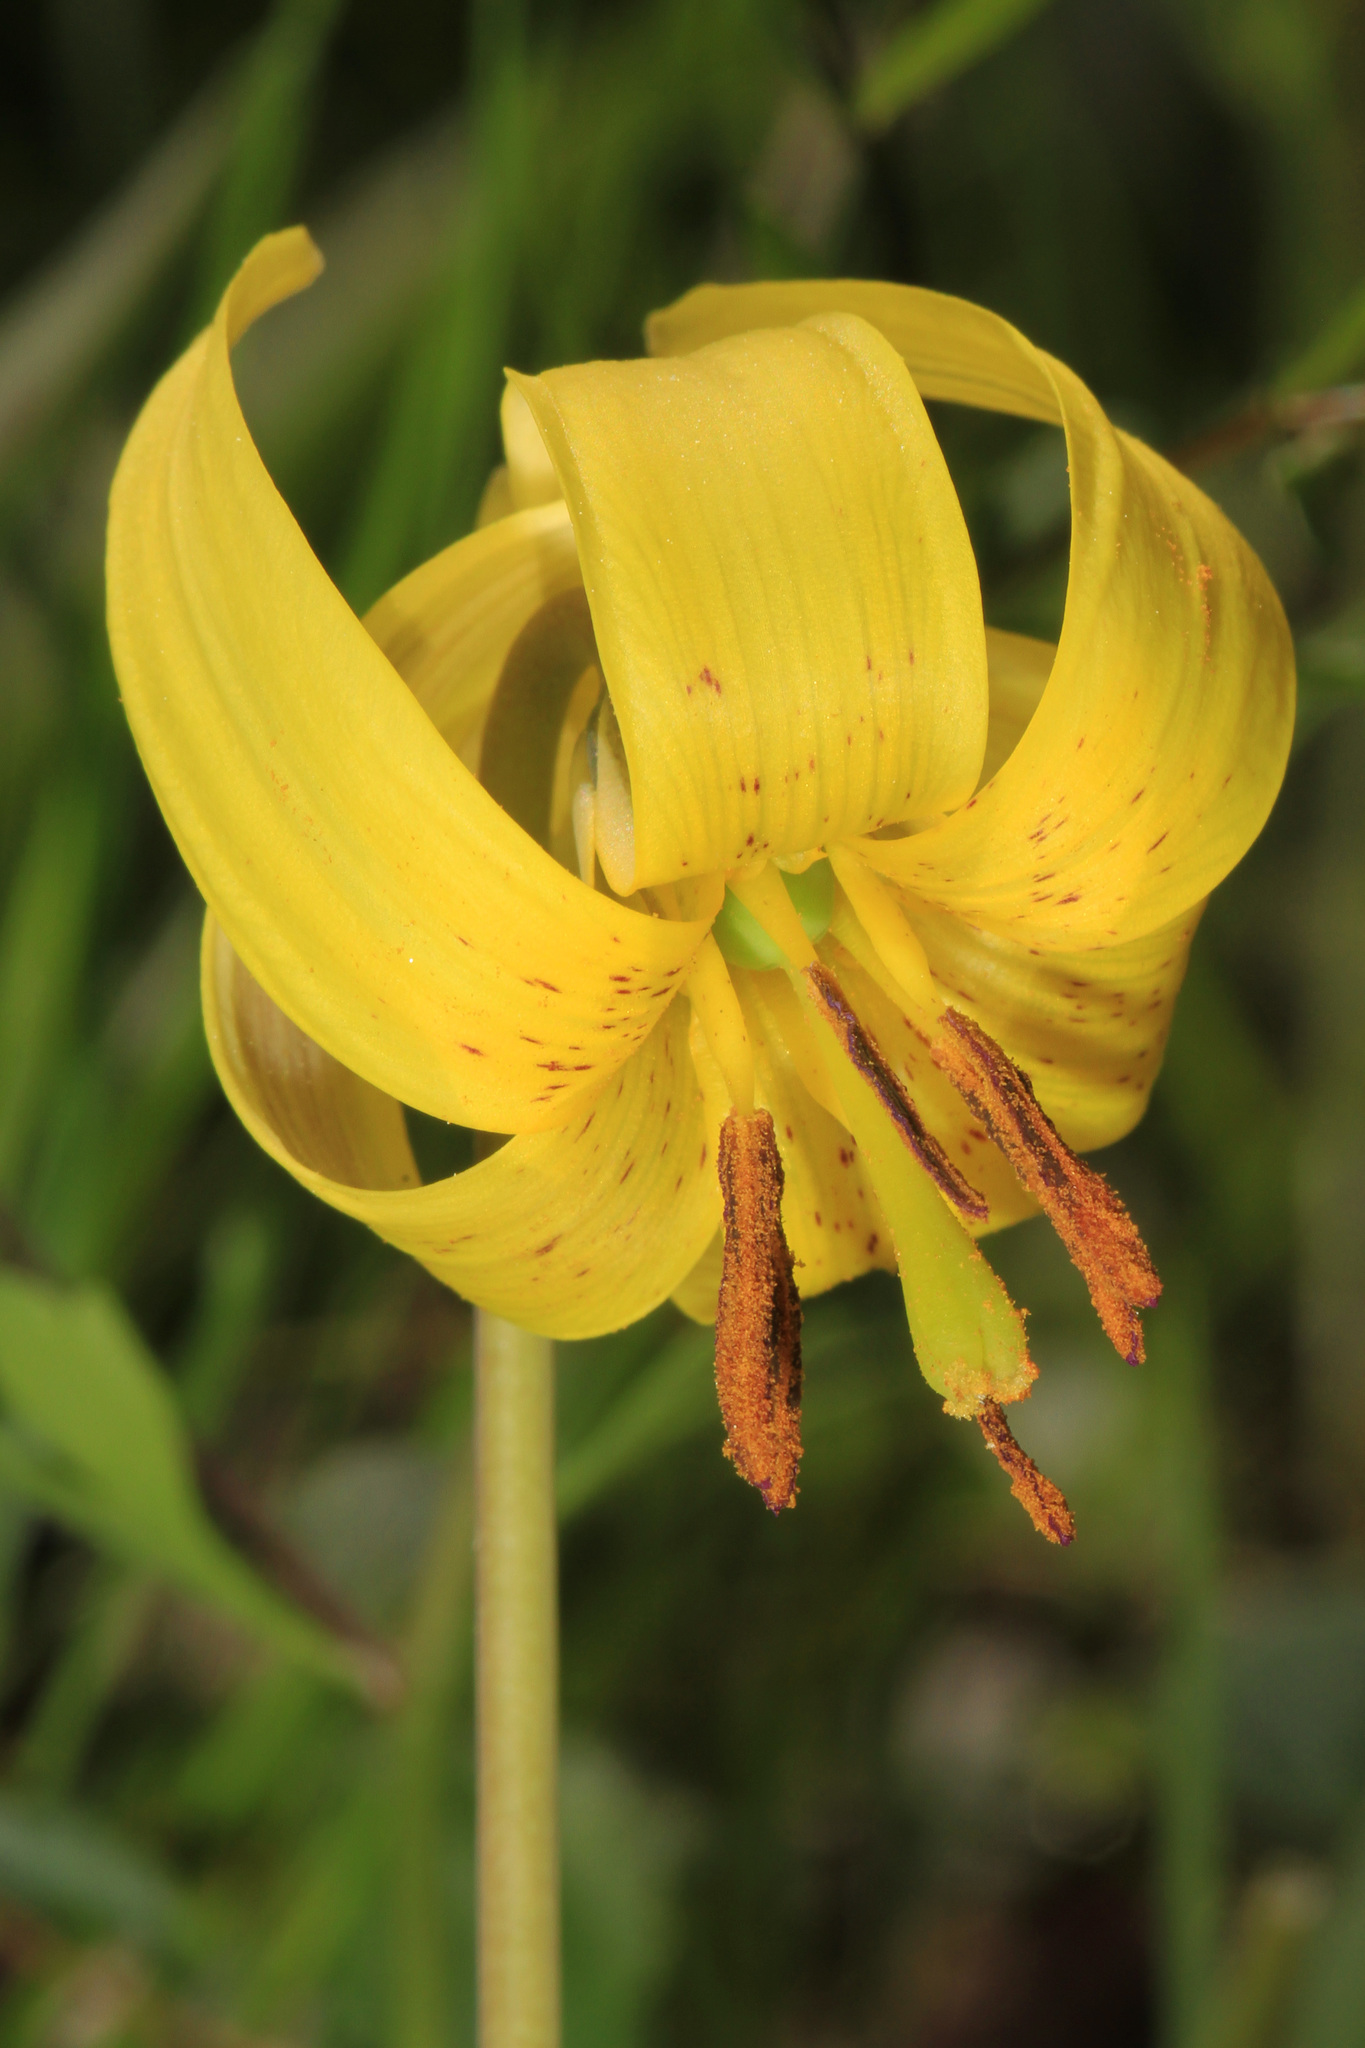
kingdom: Plantae
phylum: Tracheophyta
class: Liliopsida
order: Liliales
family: Liliaceae
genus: Erythronium
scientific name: Erythronium americanum
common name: Yellow adder's-tongue
